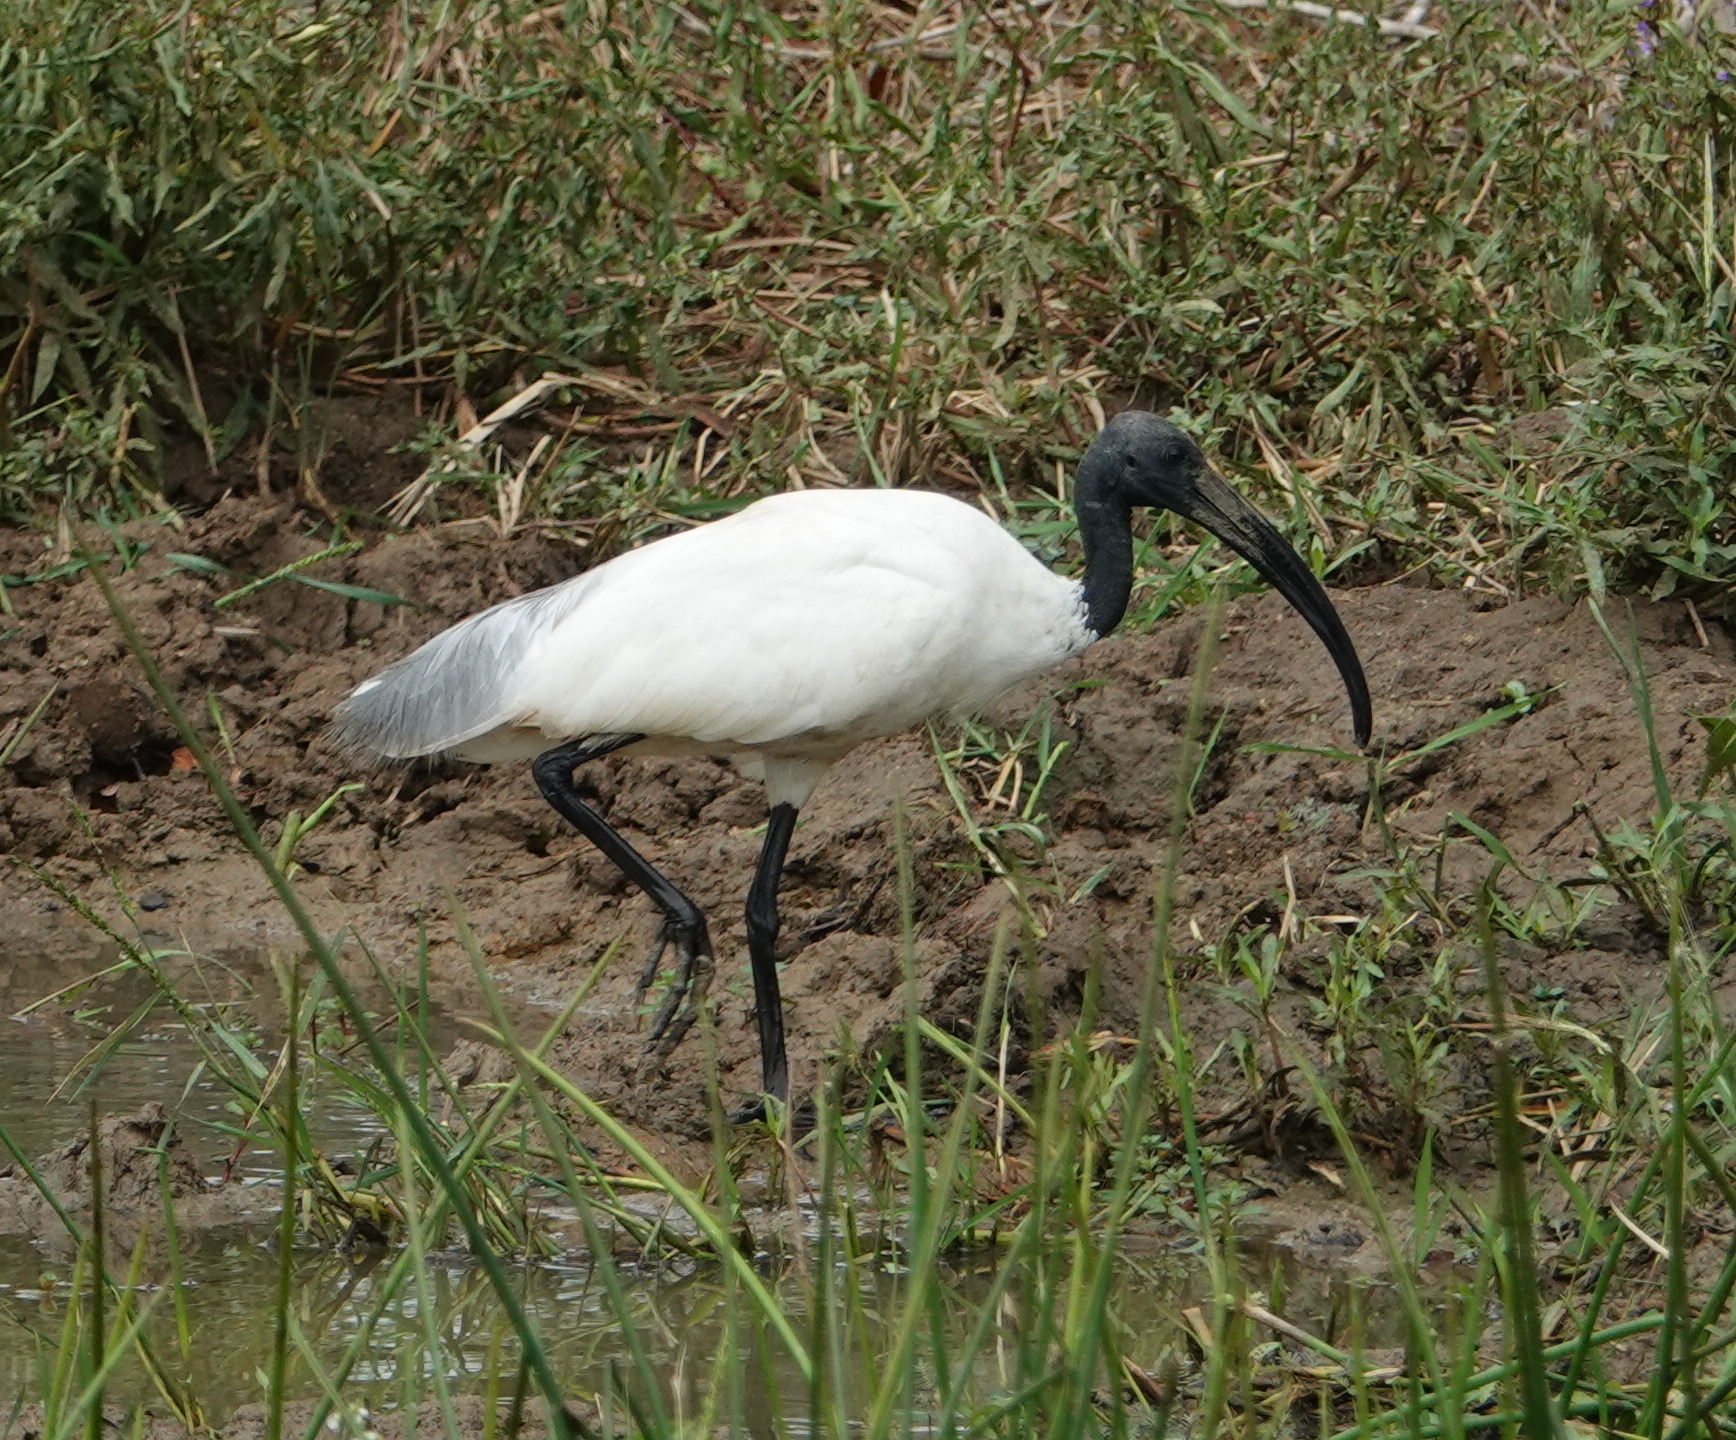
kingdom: Animalia
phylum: Chordata
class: Aves
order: Pelecaniformes
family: Threskiornithidae
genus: Threskiornis
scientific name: Threskiornis melanocephalus
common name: Black-headed ibis
